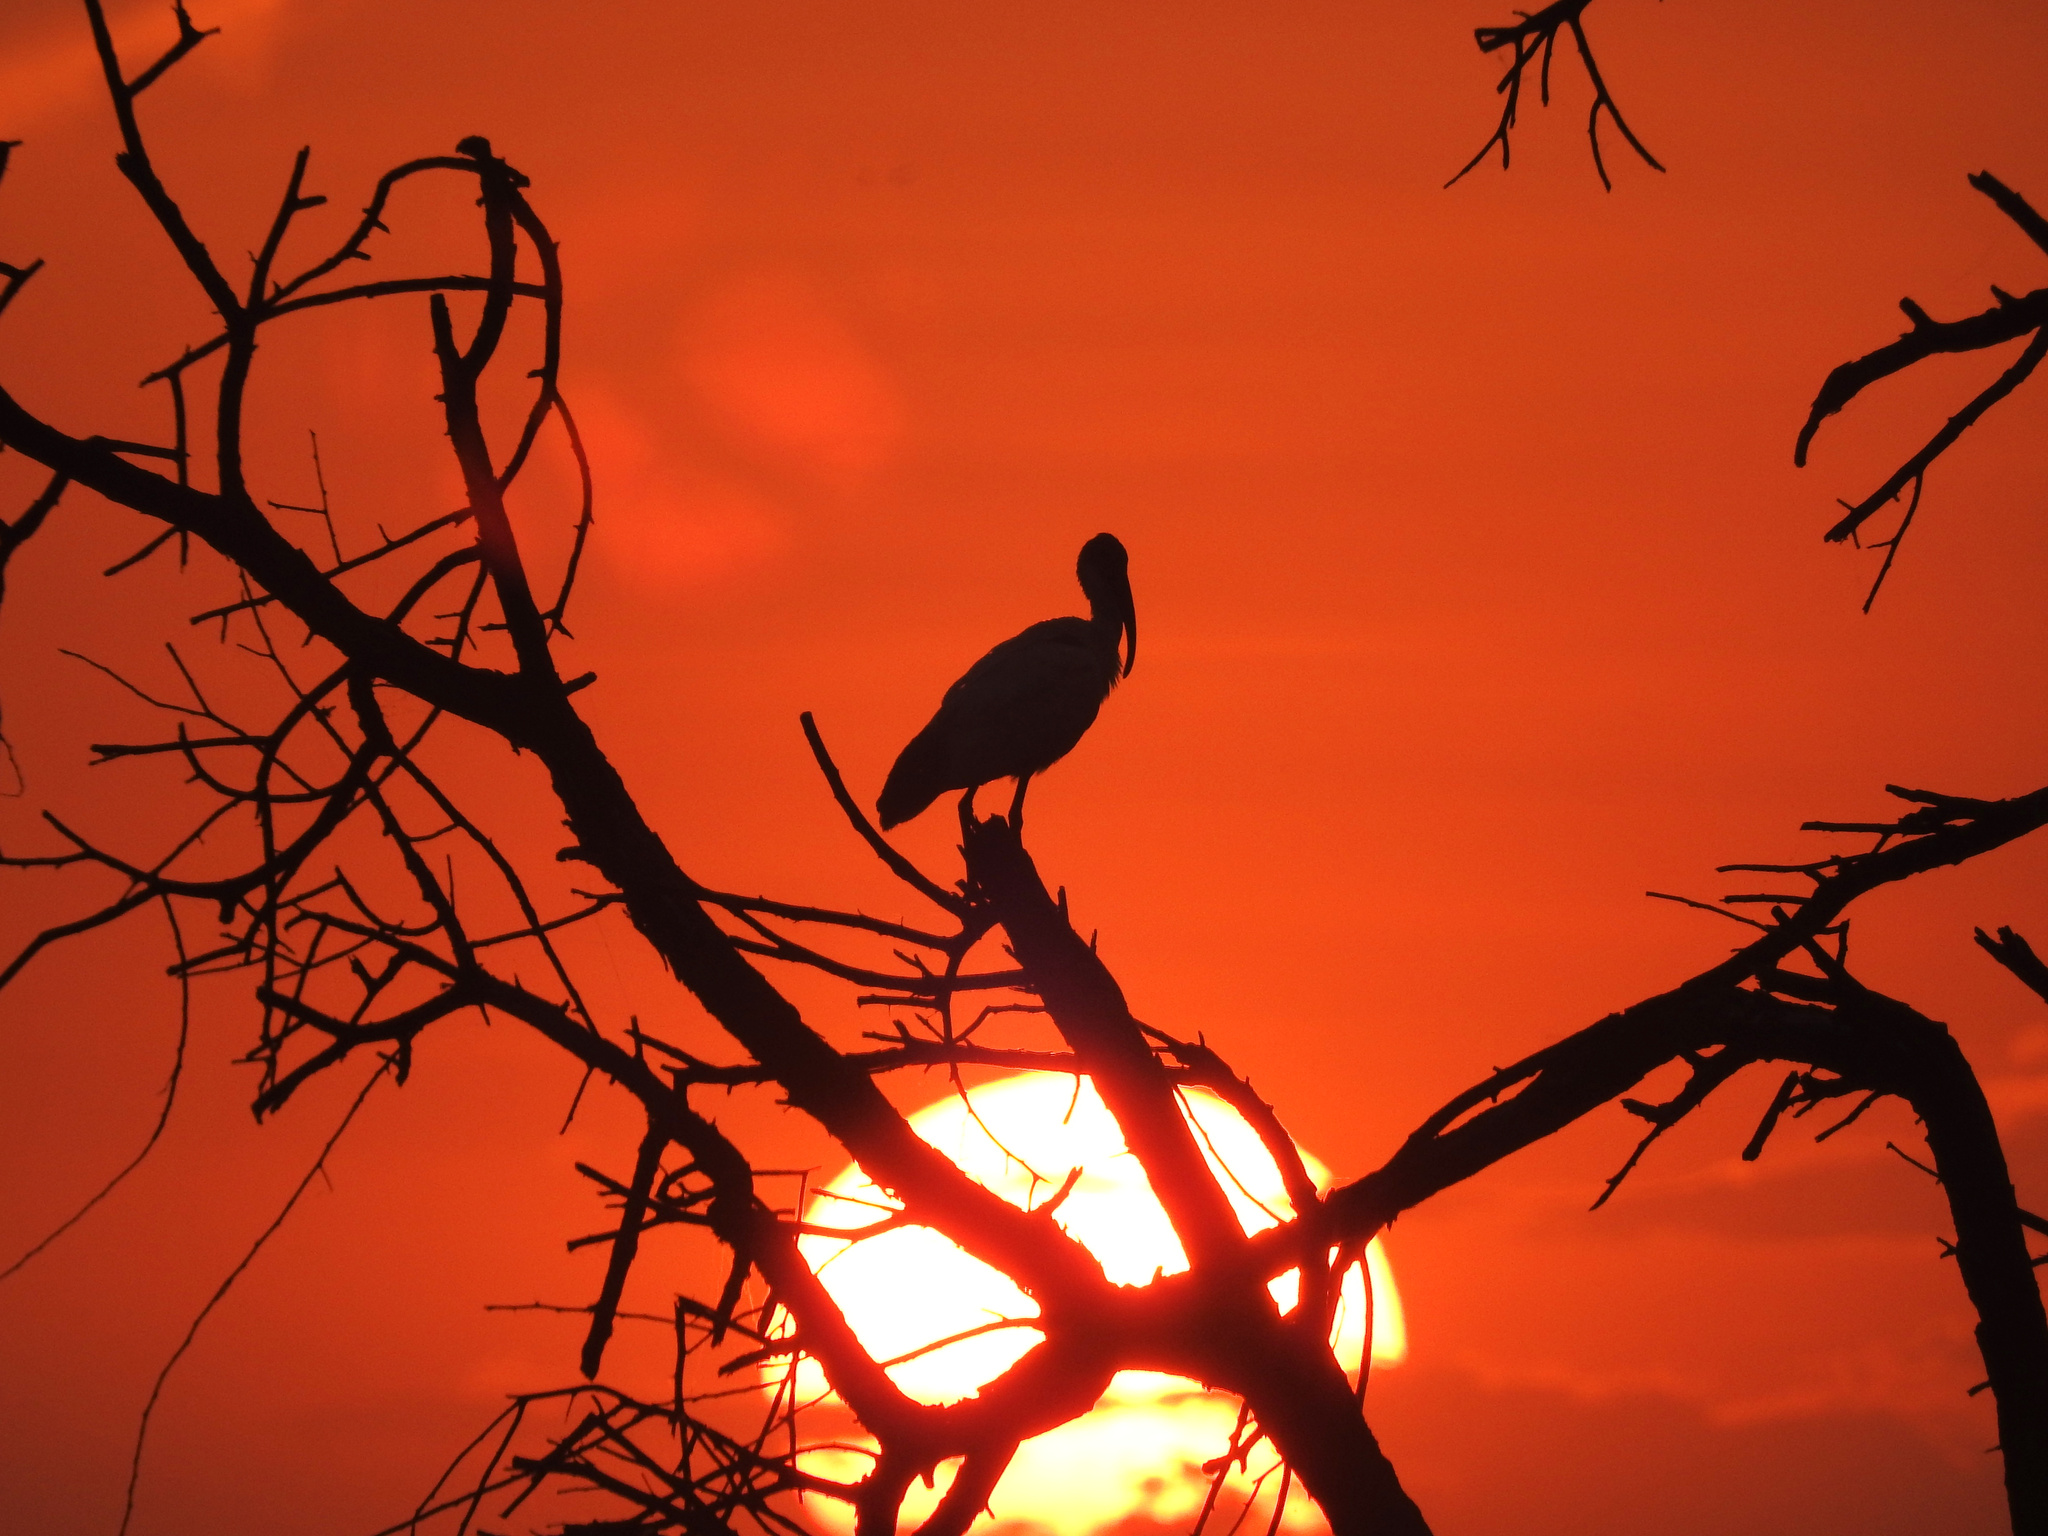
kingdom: Animalia
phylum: Chordata
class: Aves
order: Pelecaniformes
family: Threskiornithidae
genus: Threskiornis
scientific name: Threskiornis melanocephalus
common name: Black-headed ibis
